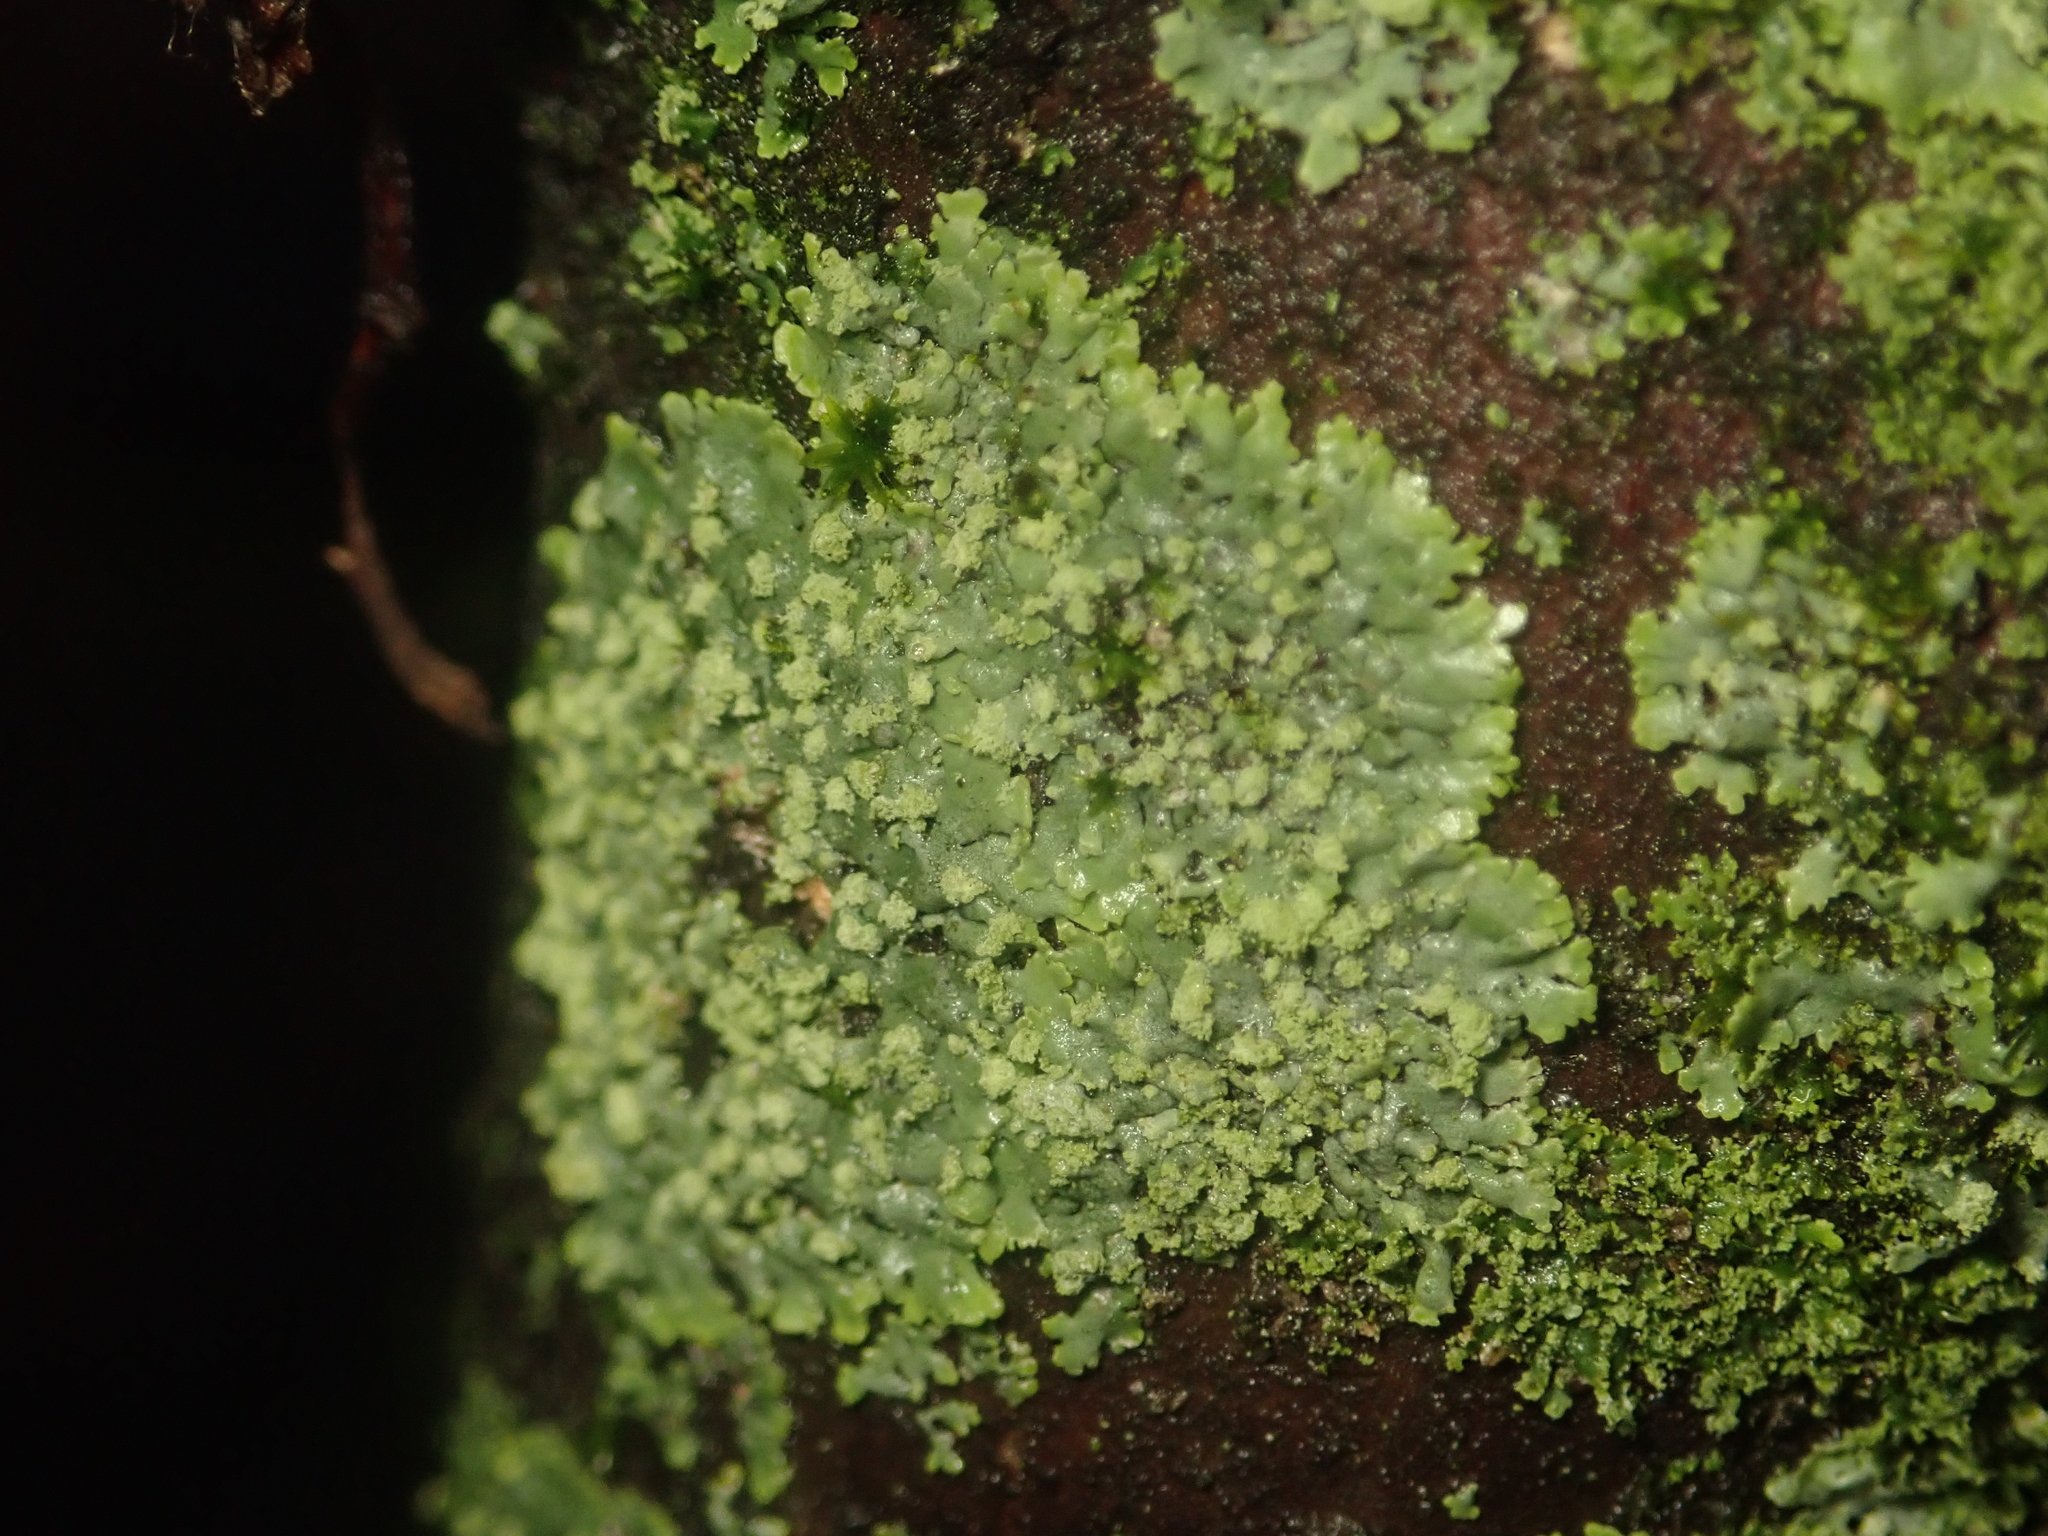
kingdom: Fungi
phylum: Ascomycota
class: Lecanoromycetes
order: Caliciales
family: Physciaceae
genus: Phaeophyscia
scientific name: Phaeophyscia orbicularis
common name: Mealy shadow lichen
